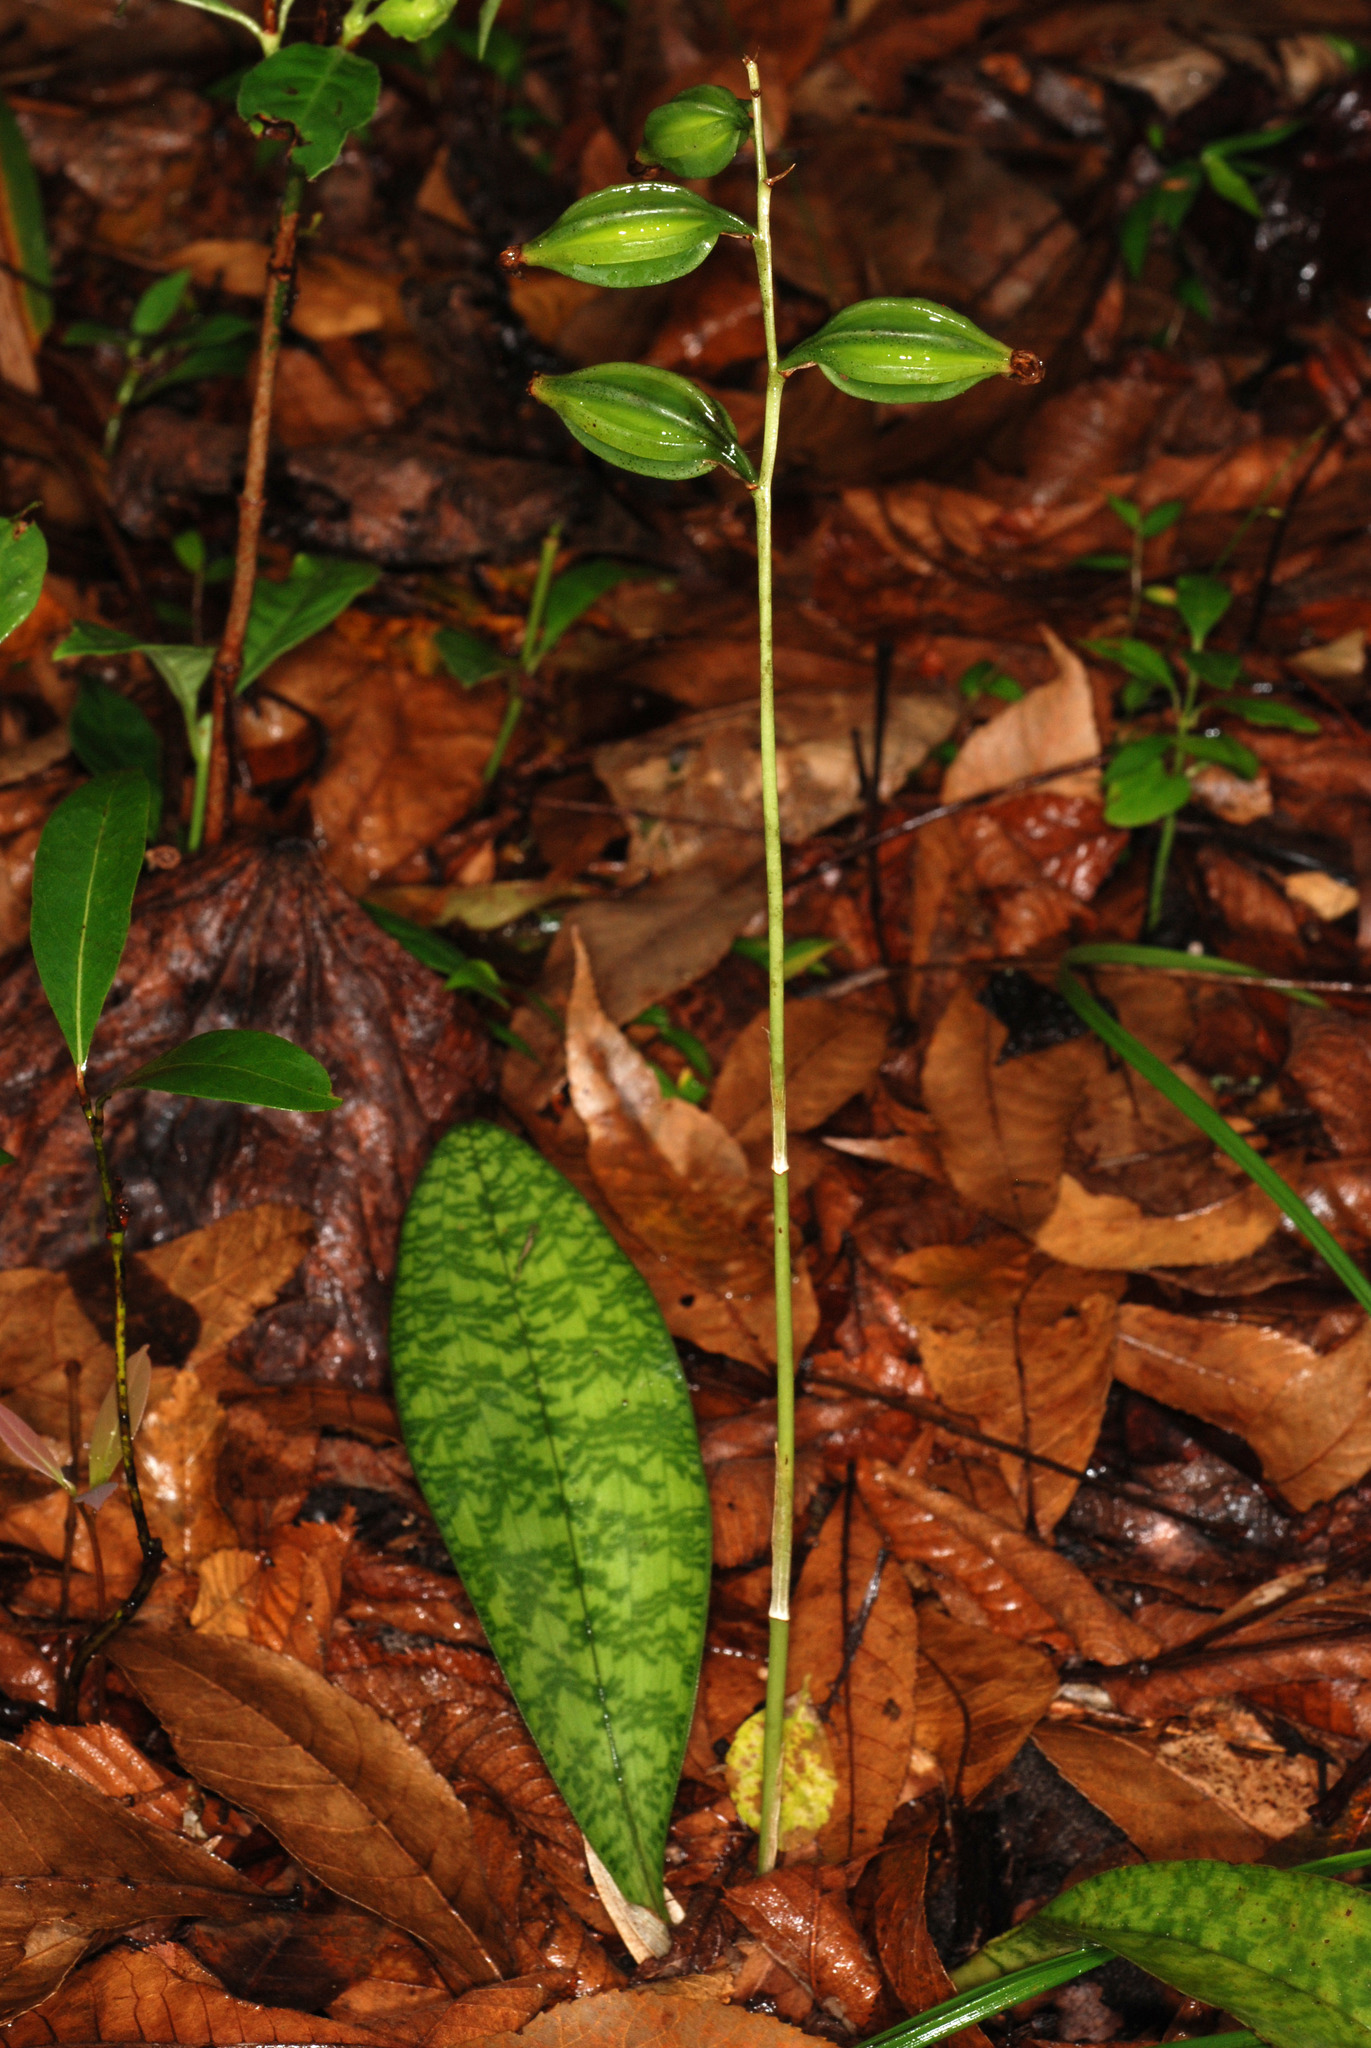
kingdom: Plantae
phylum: Tracheophyta
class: Liliopsida
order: Asparagales
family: Orchidaceae
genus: Eulophia
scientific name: Eulophia maculata
